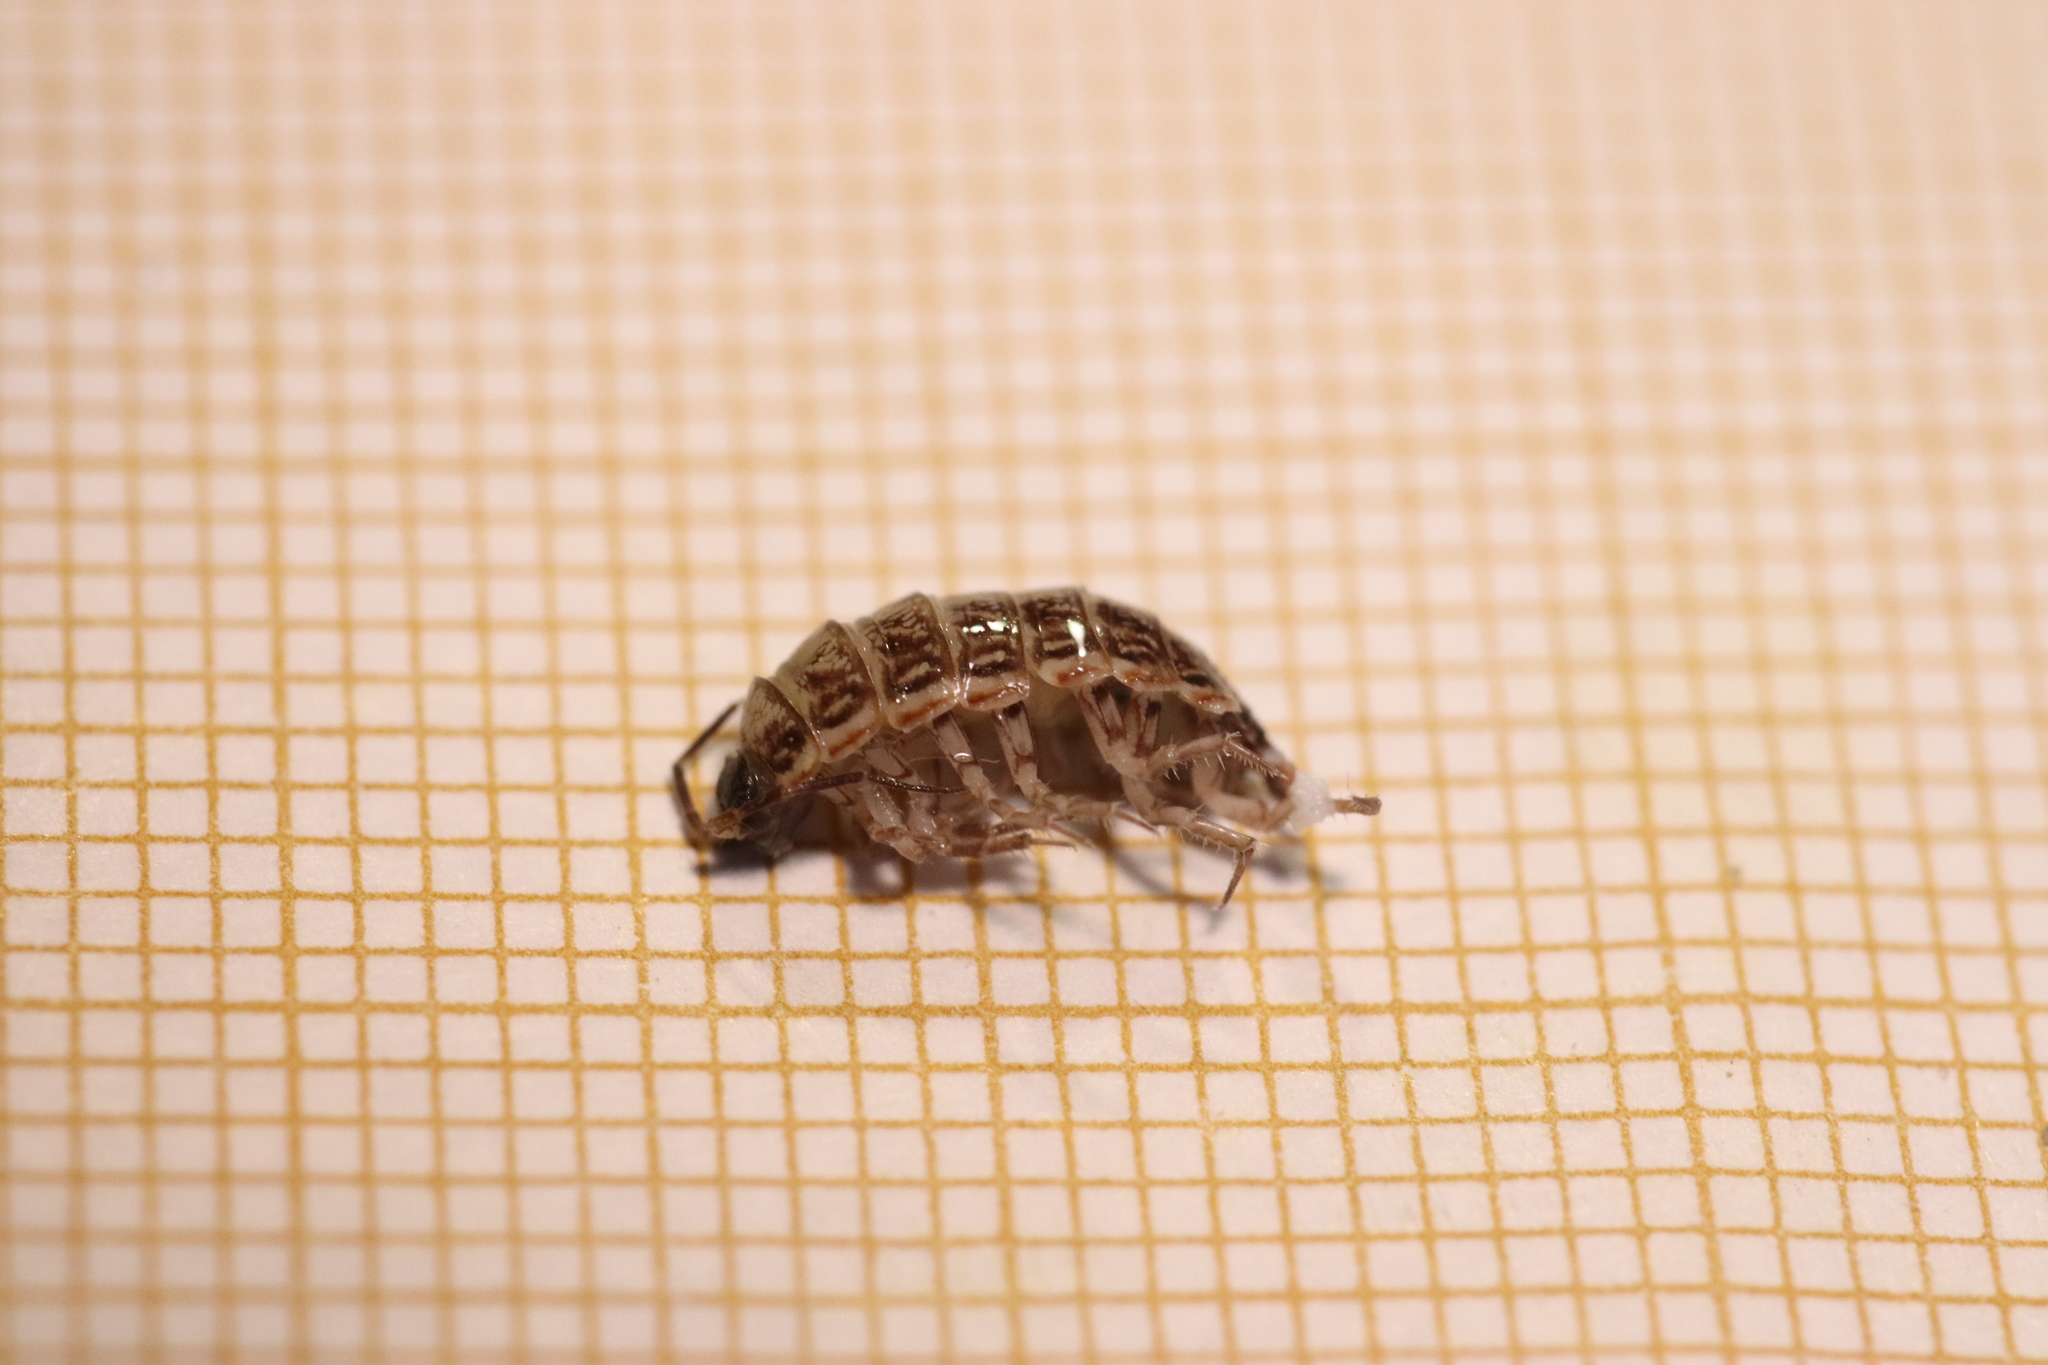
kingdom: Animalia
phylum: Arthropoda
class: Malacostraca
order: Isopoda
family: Philosciidae
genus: Philoscia
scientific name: Philoscia muscorum
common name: Common striped woodlouse
